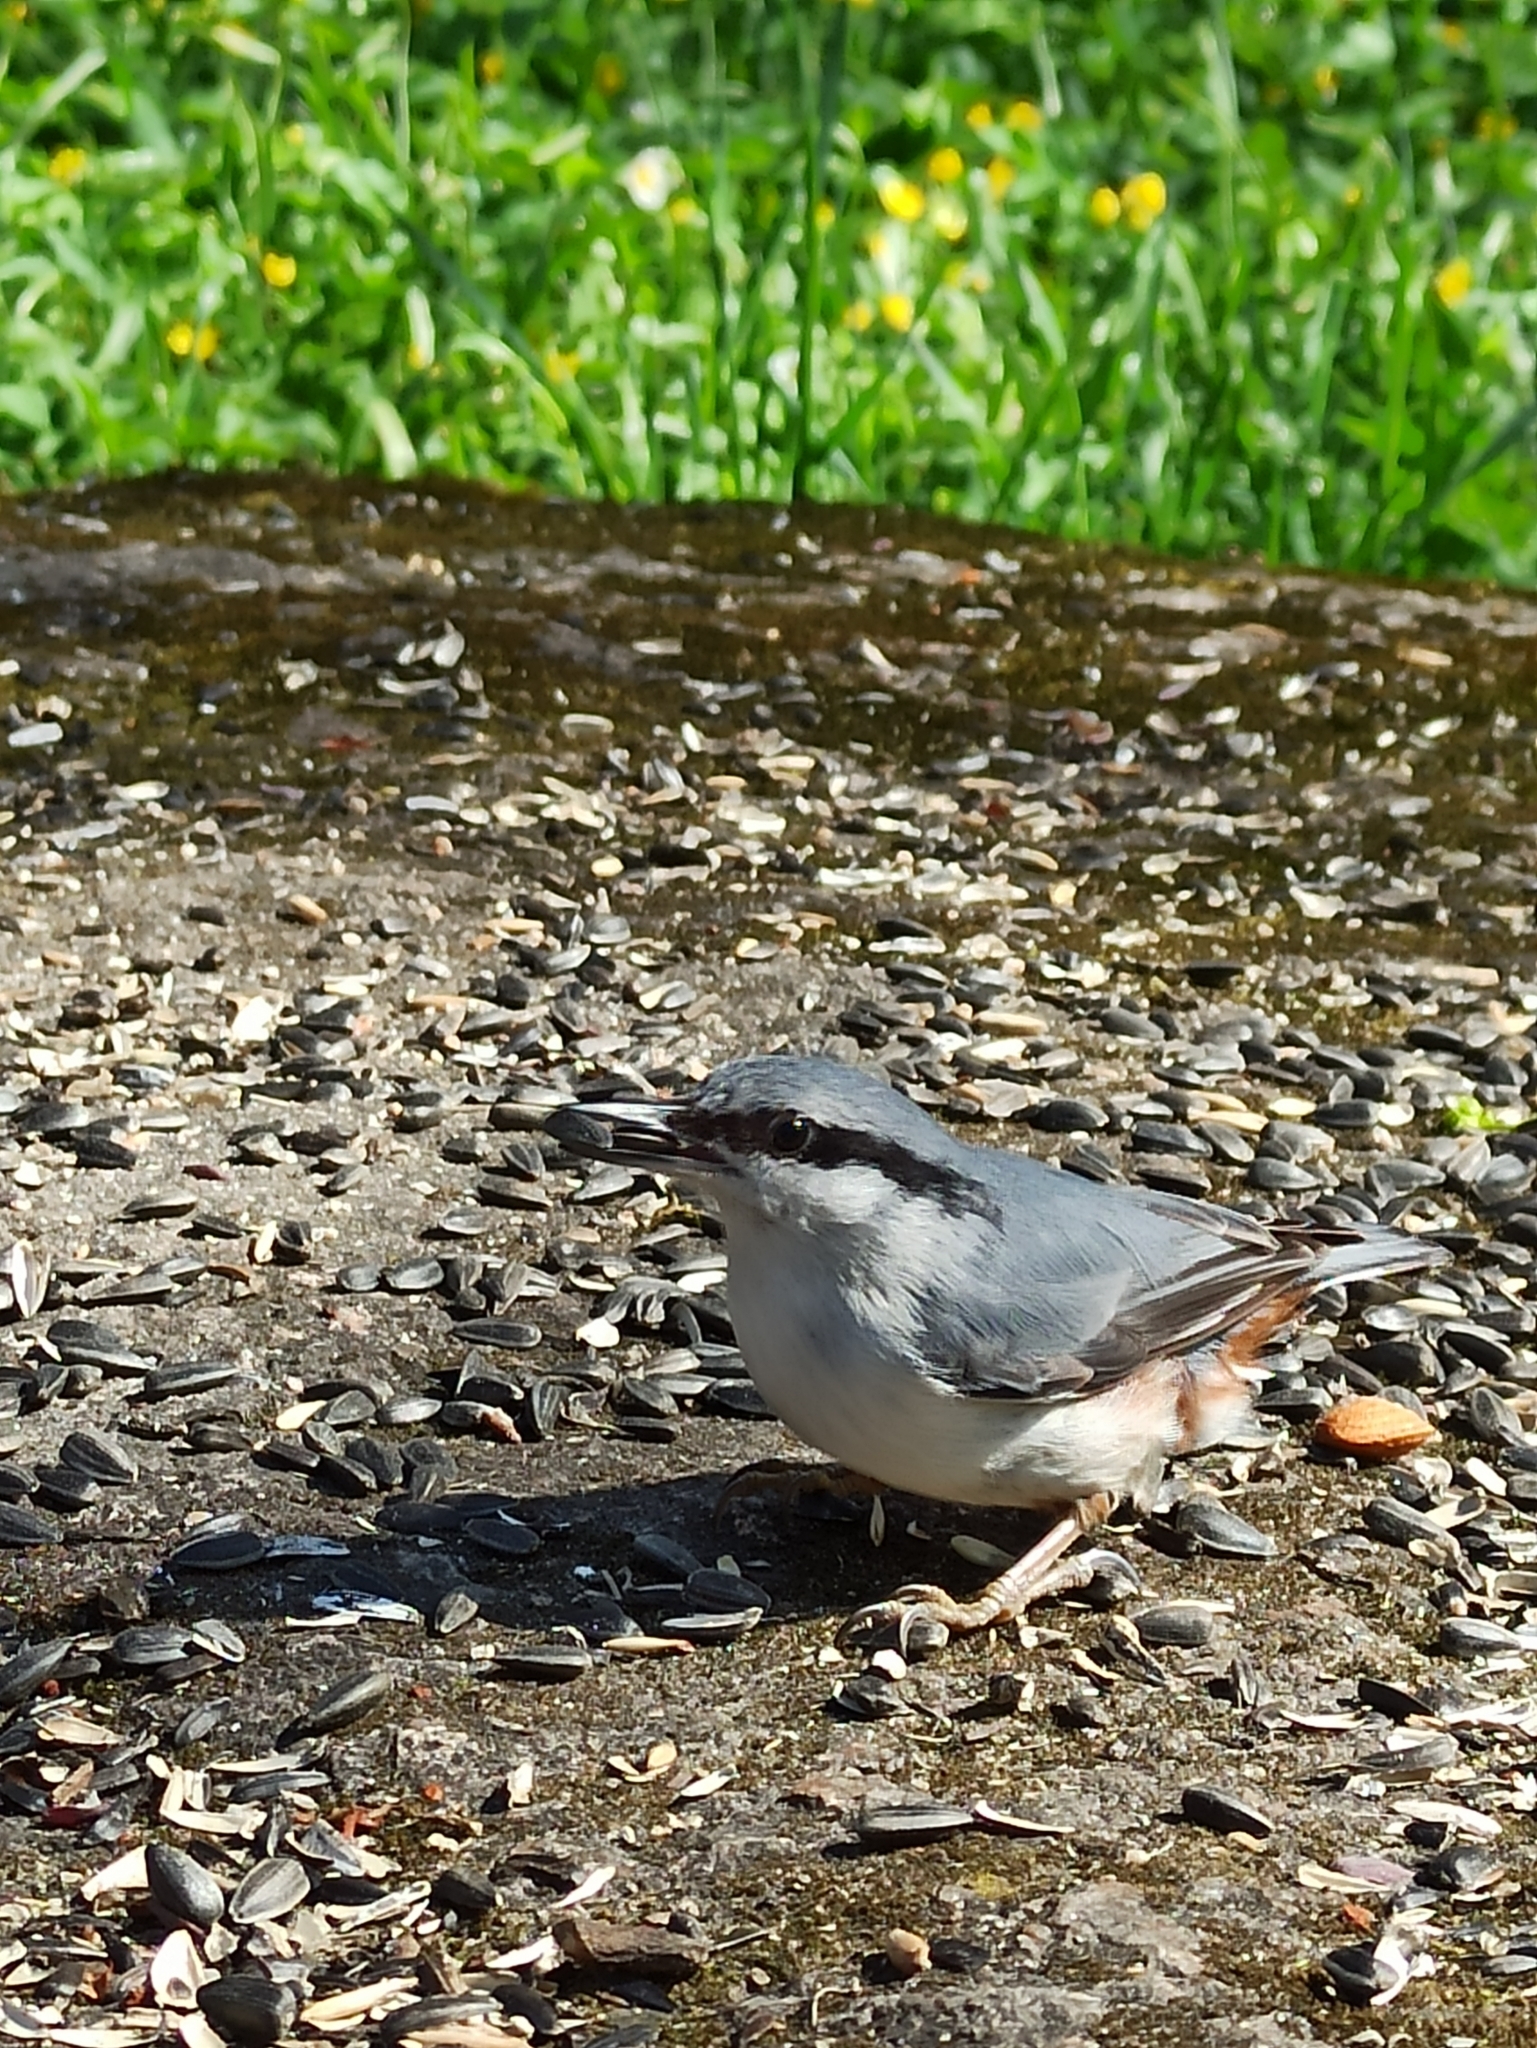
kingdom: Animalia
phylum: Chordata
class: Aves
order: Passeriformes
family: Sittidae
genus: Sitta
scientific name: Sitta europaea
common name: Eurasian nuthatch
